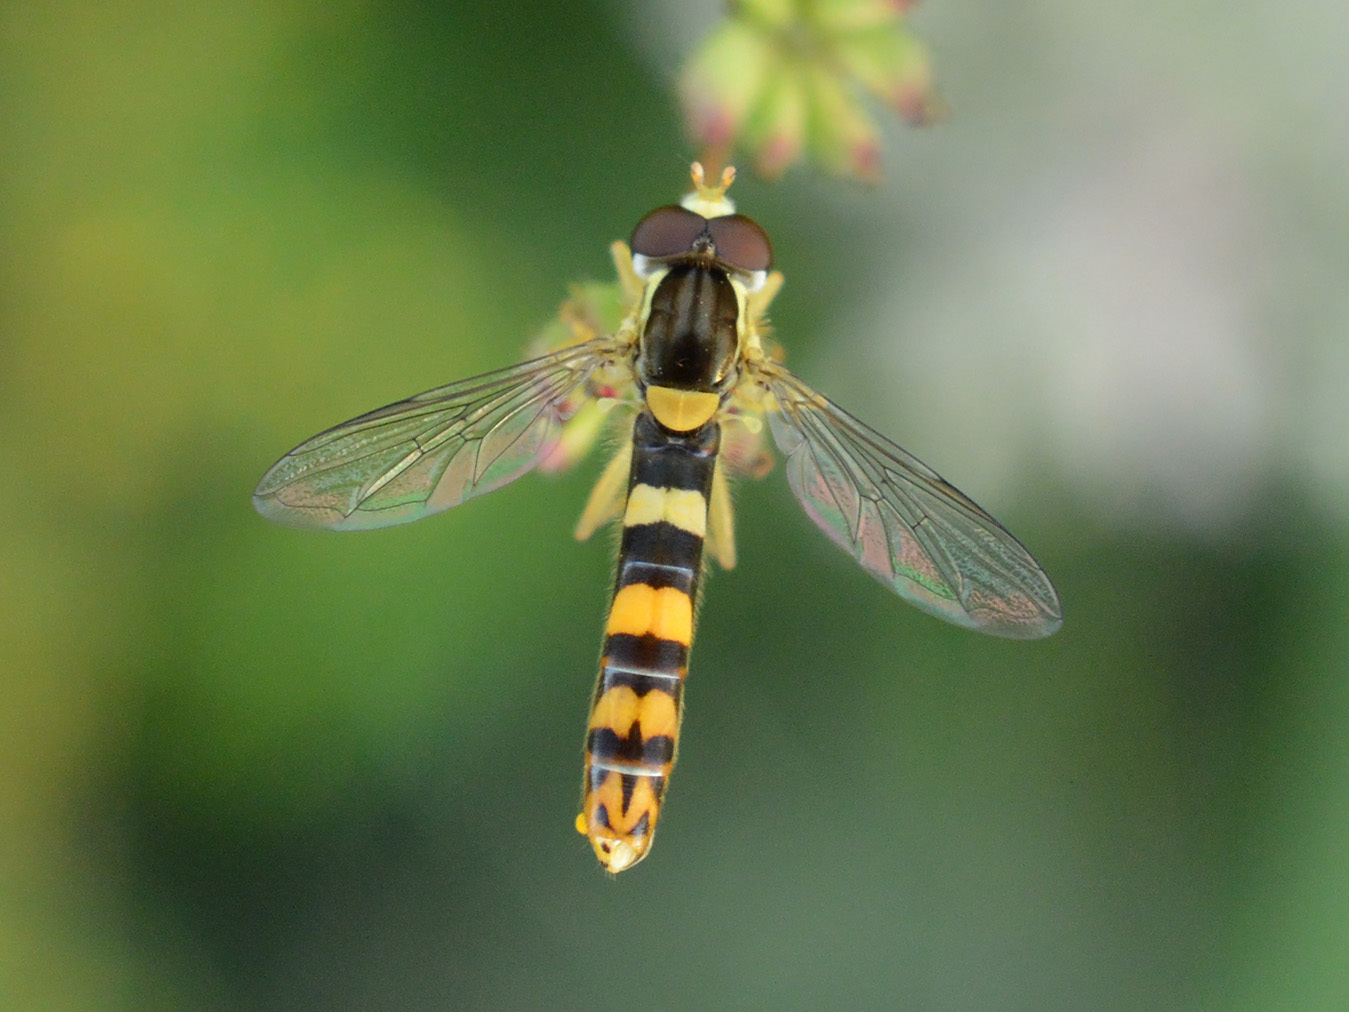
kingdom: Animalia
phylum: Arthropoda
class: Insecta
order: Diptera
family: Syrphidae
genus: Sphaerophoria
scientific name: Sphaerophoria scripta
